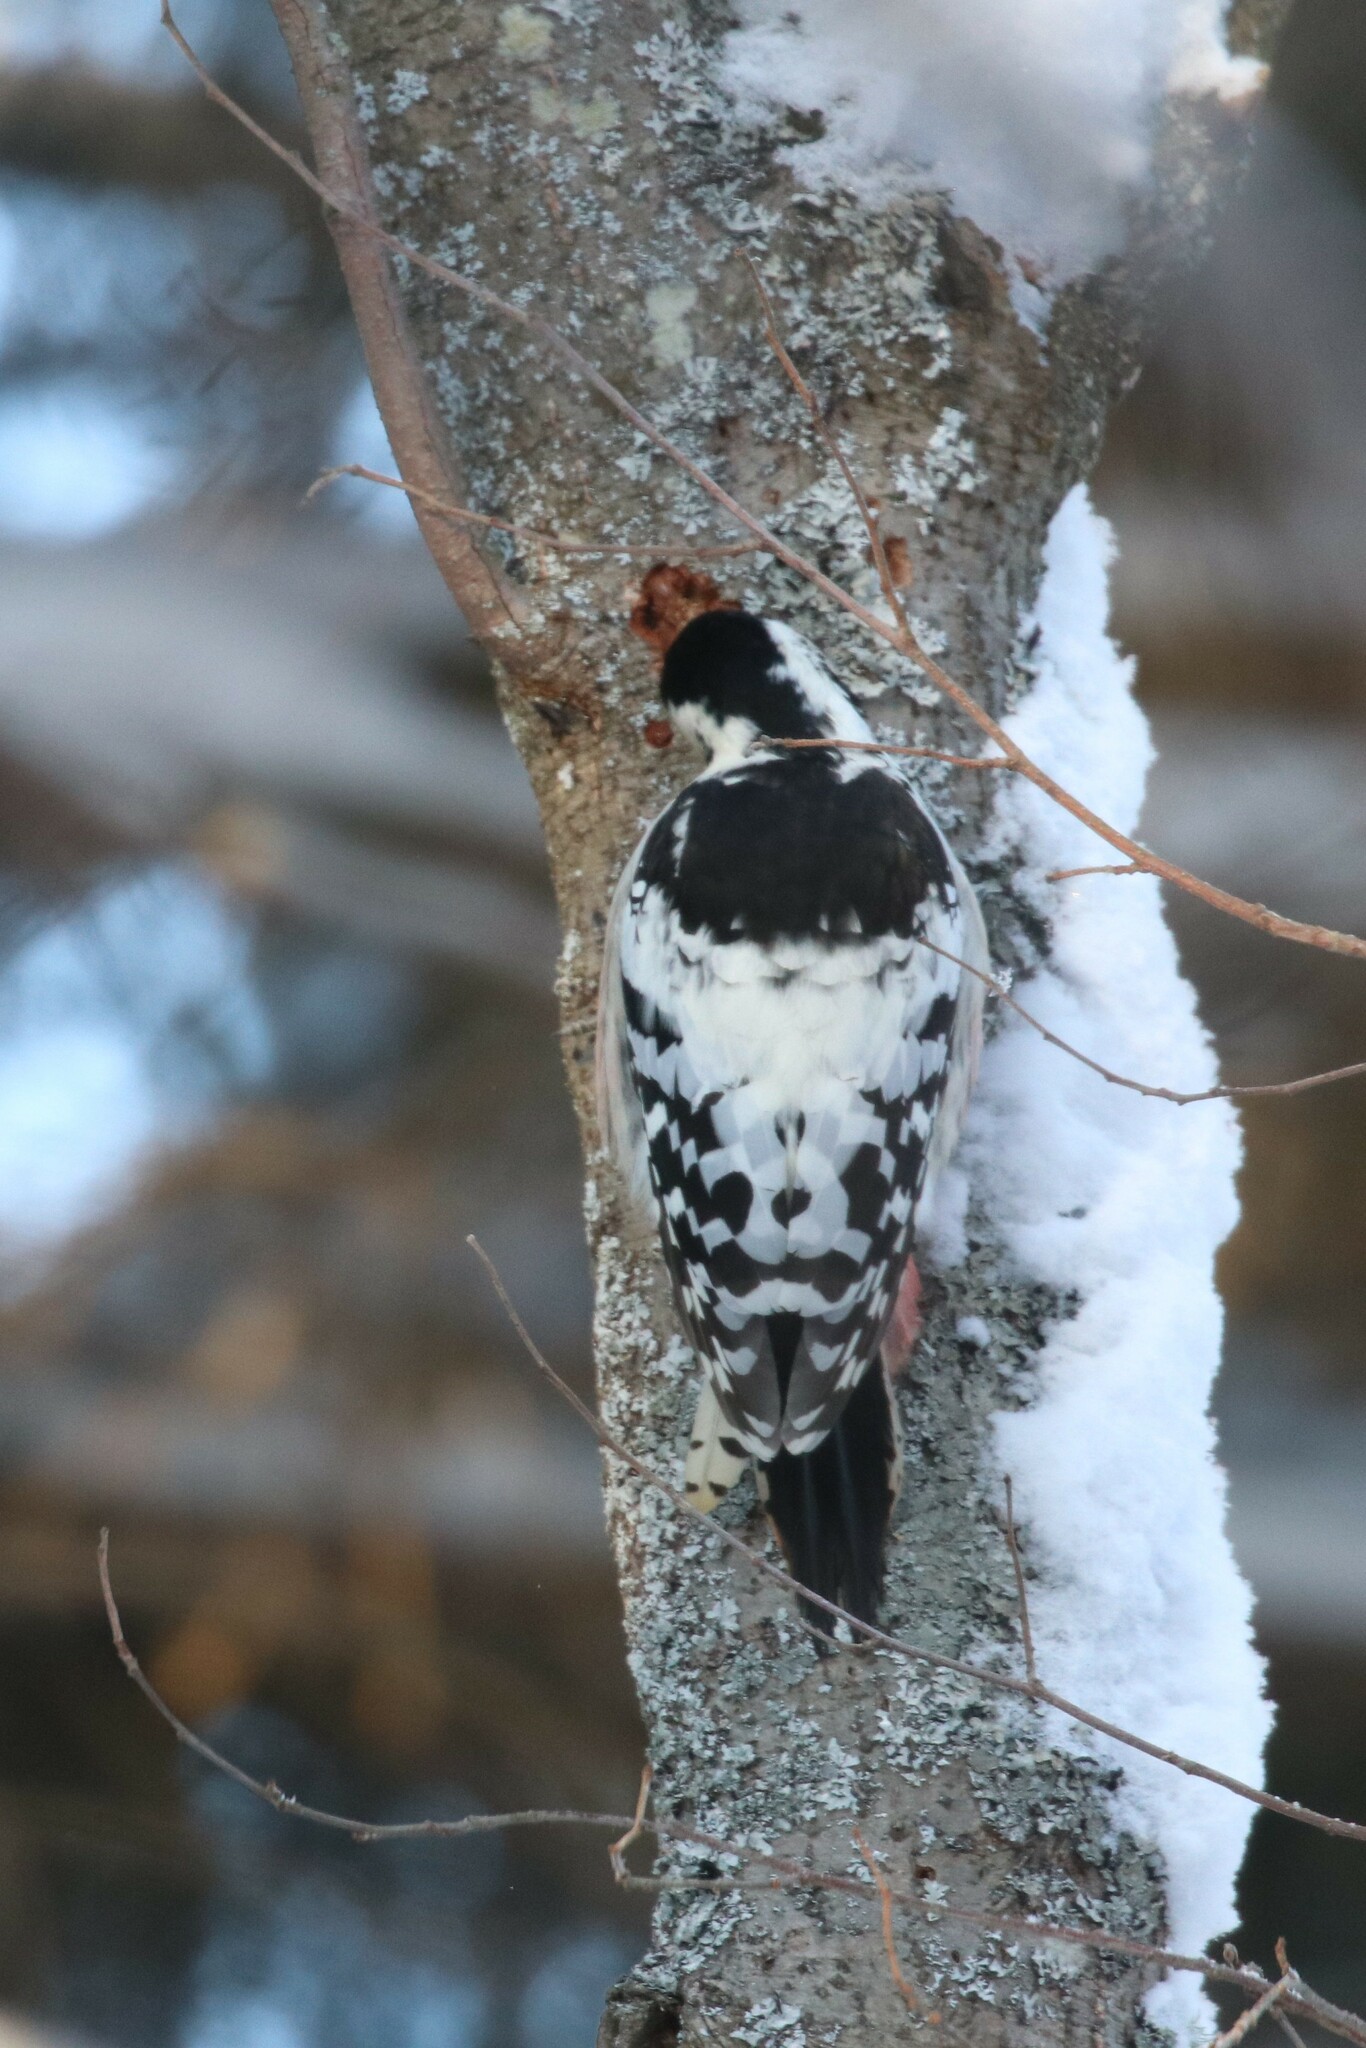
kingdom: Animalia
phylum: Chordata
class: Aves
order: Piciformes
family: Picidae
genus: Dendrocopos
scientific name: Dendrocopos leucotos
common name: White-backed woodpecker
